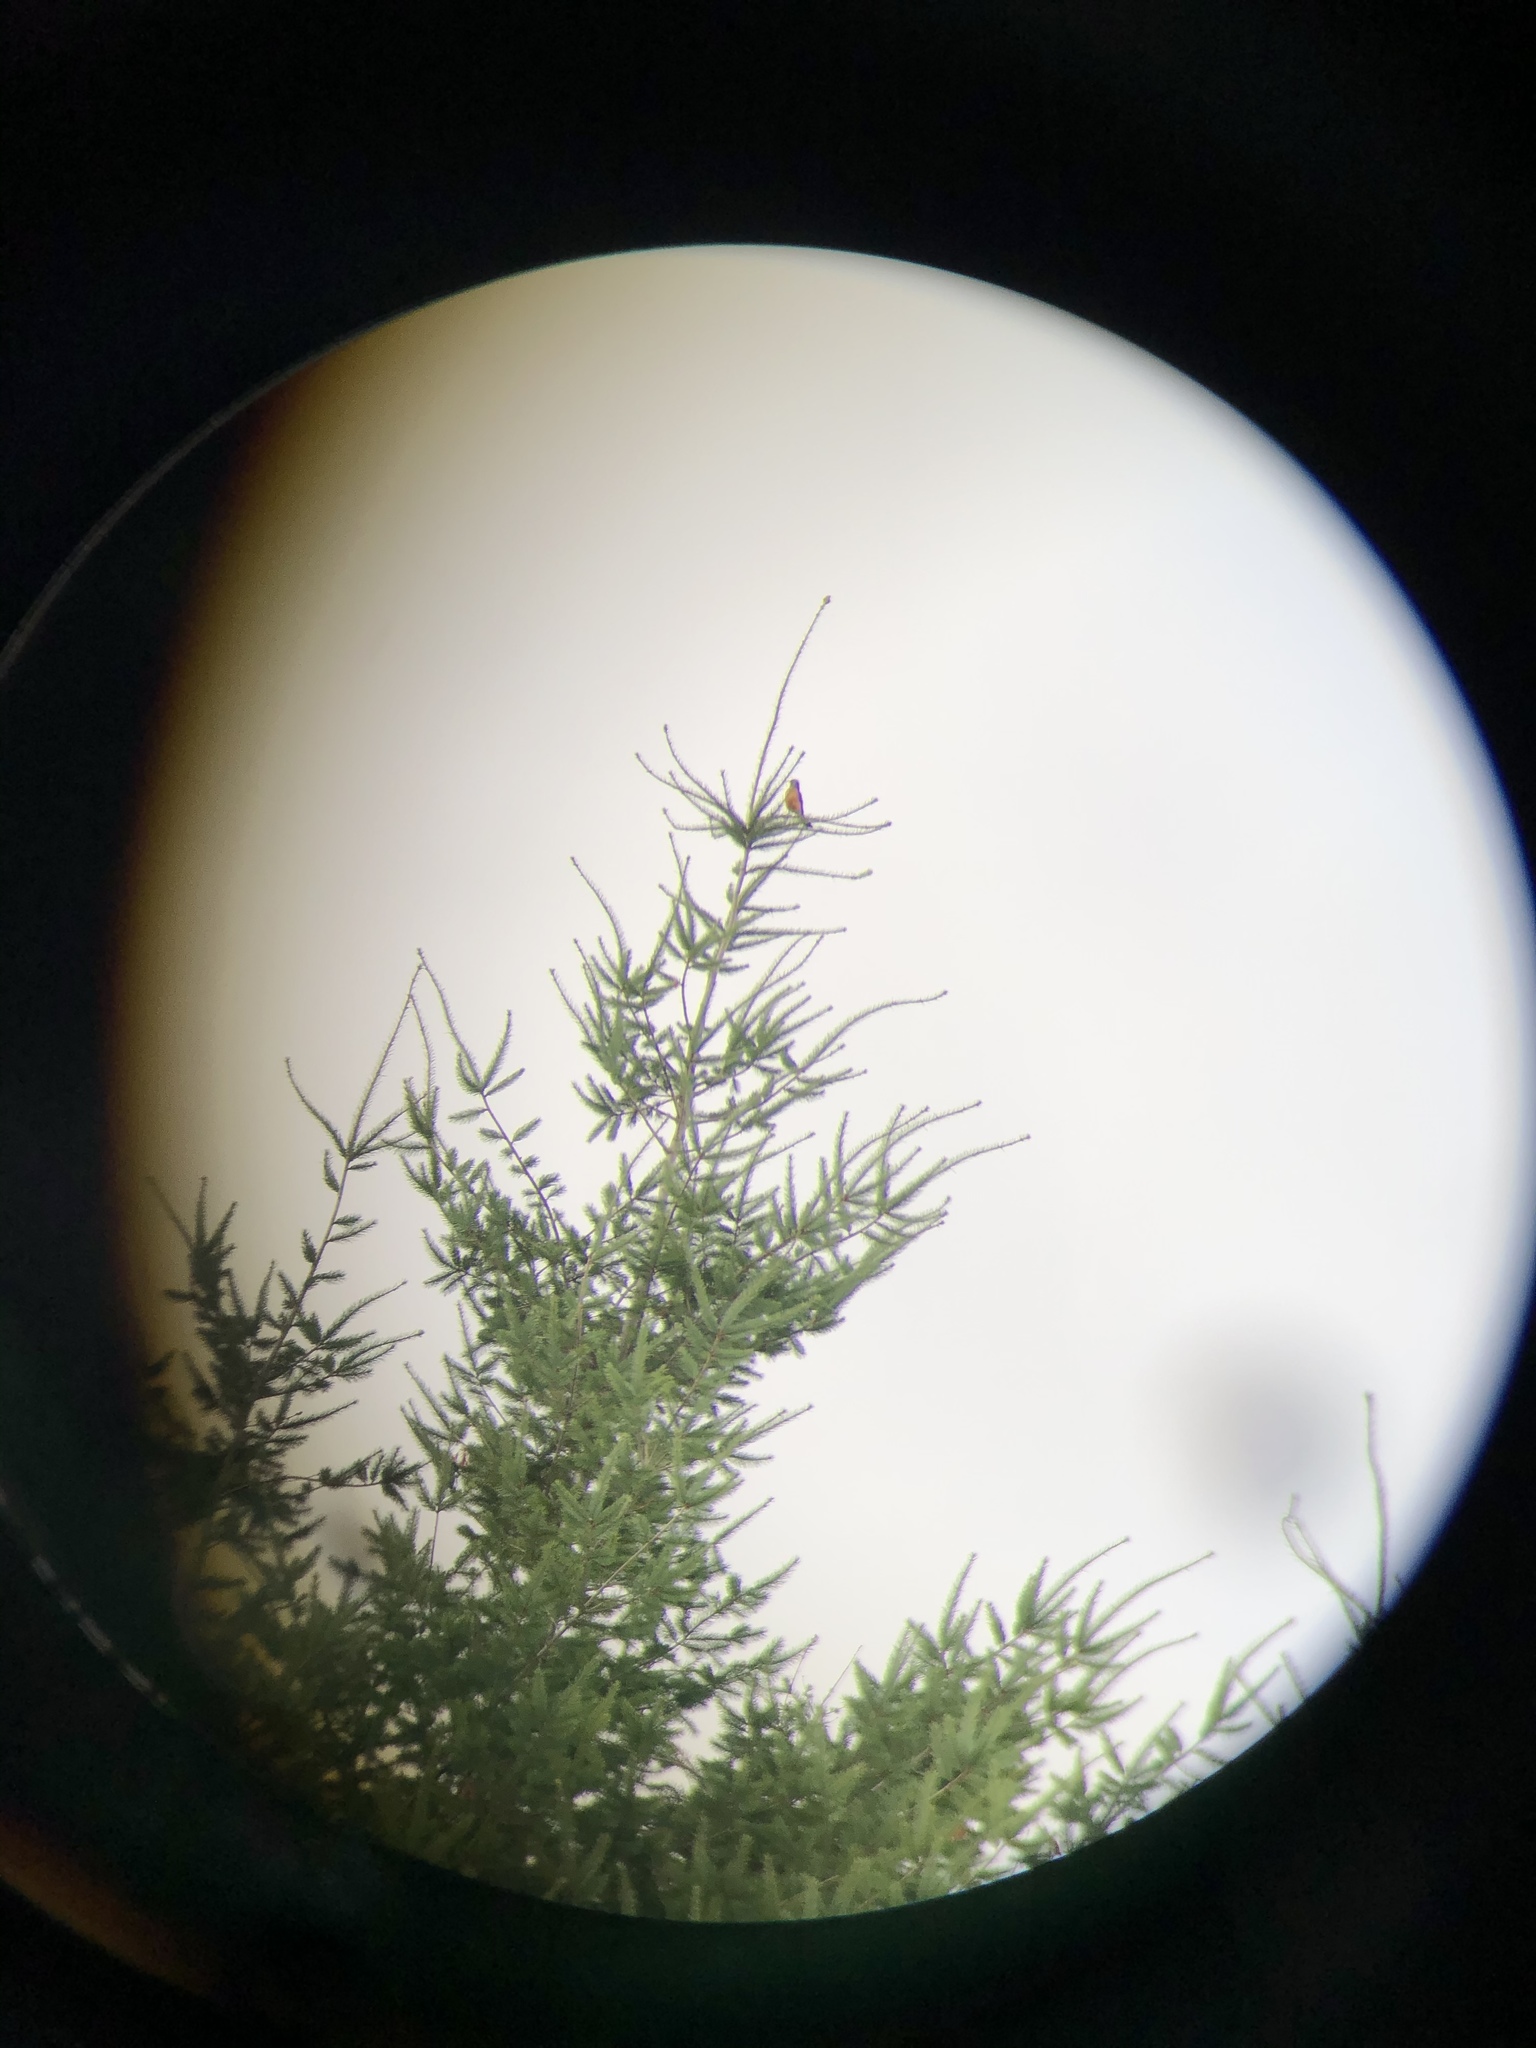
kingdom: Animalia
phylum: Chordata
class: Aves
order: Passeriformes
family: Turdidae
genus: Turdus
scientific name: Turdus migratorius
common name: American robin
